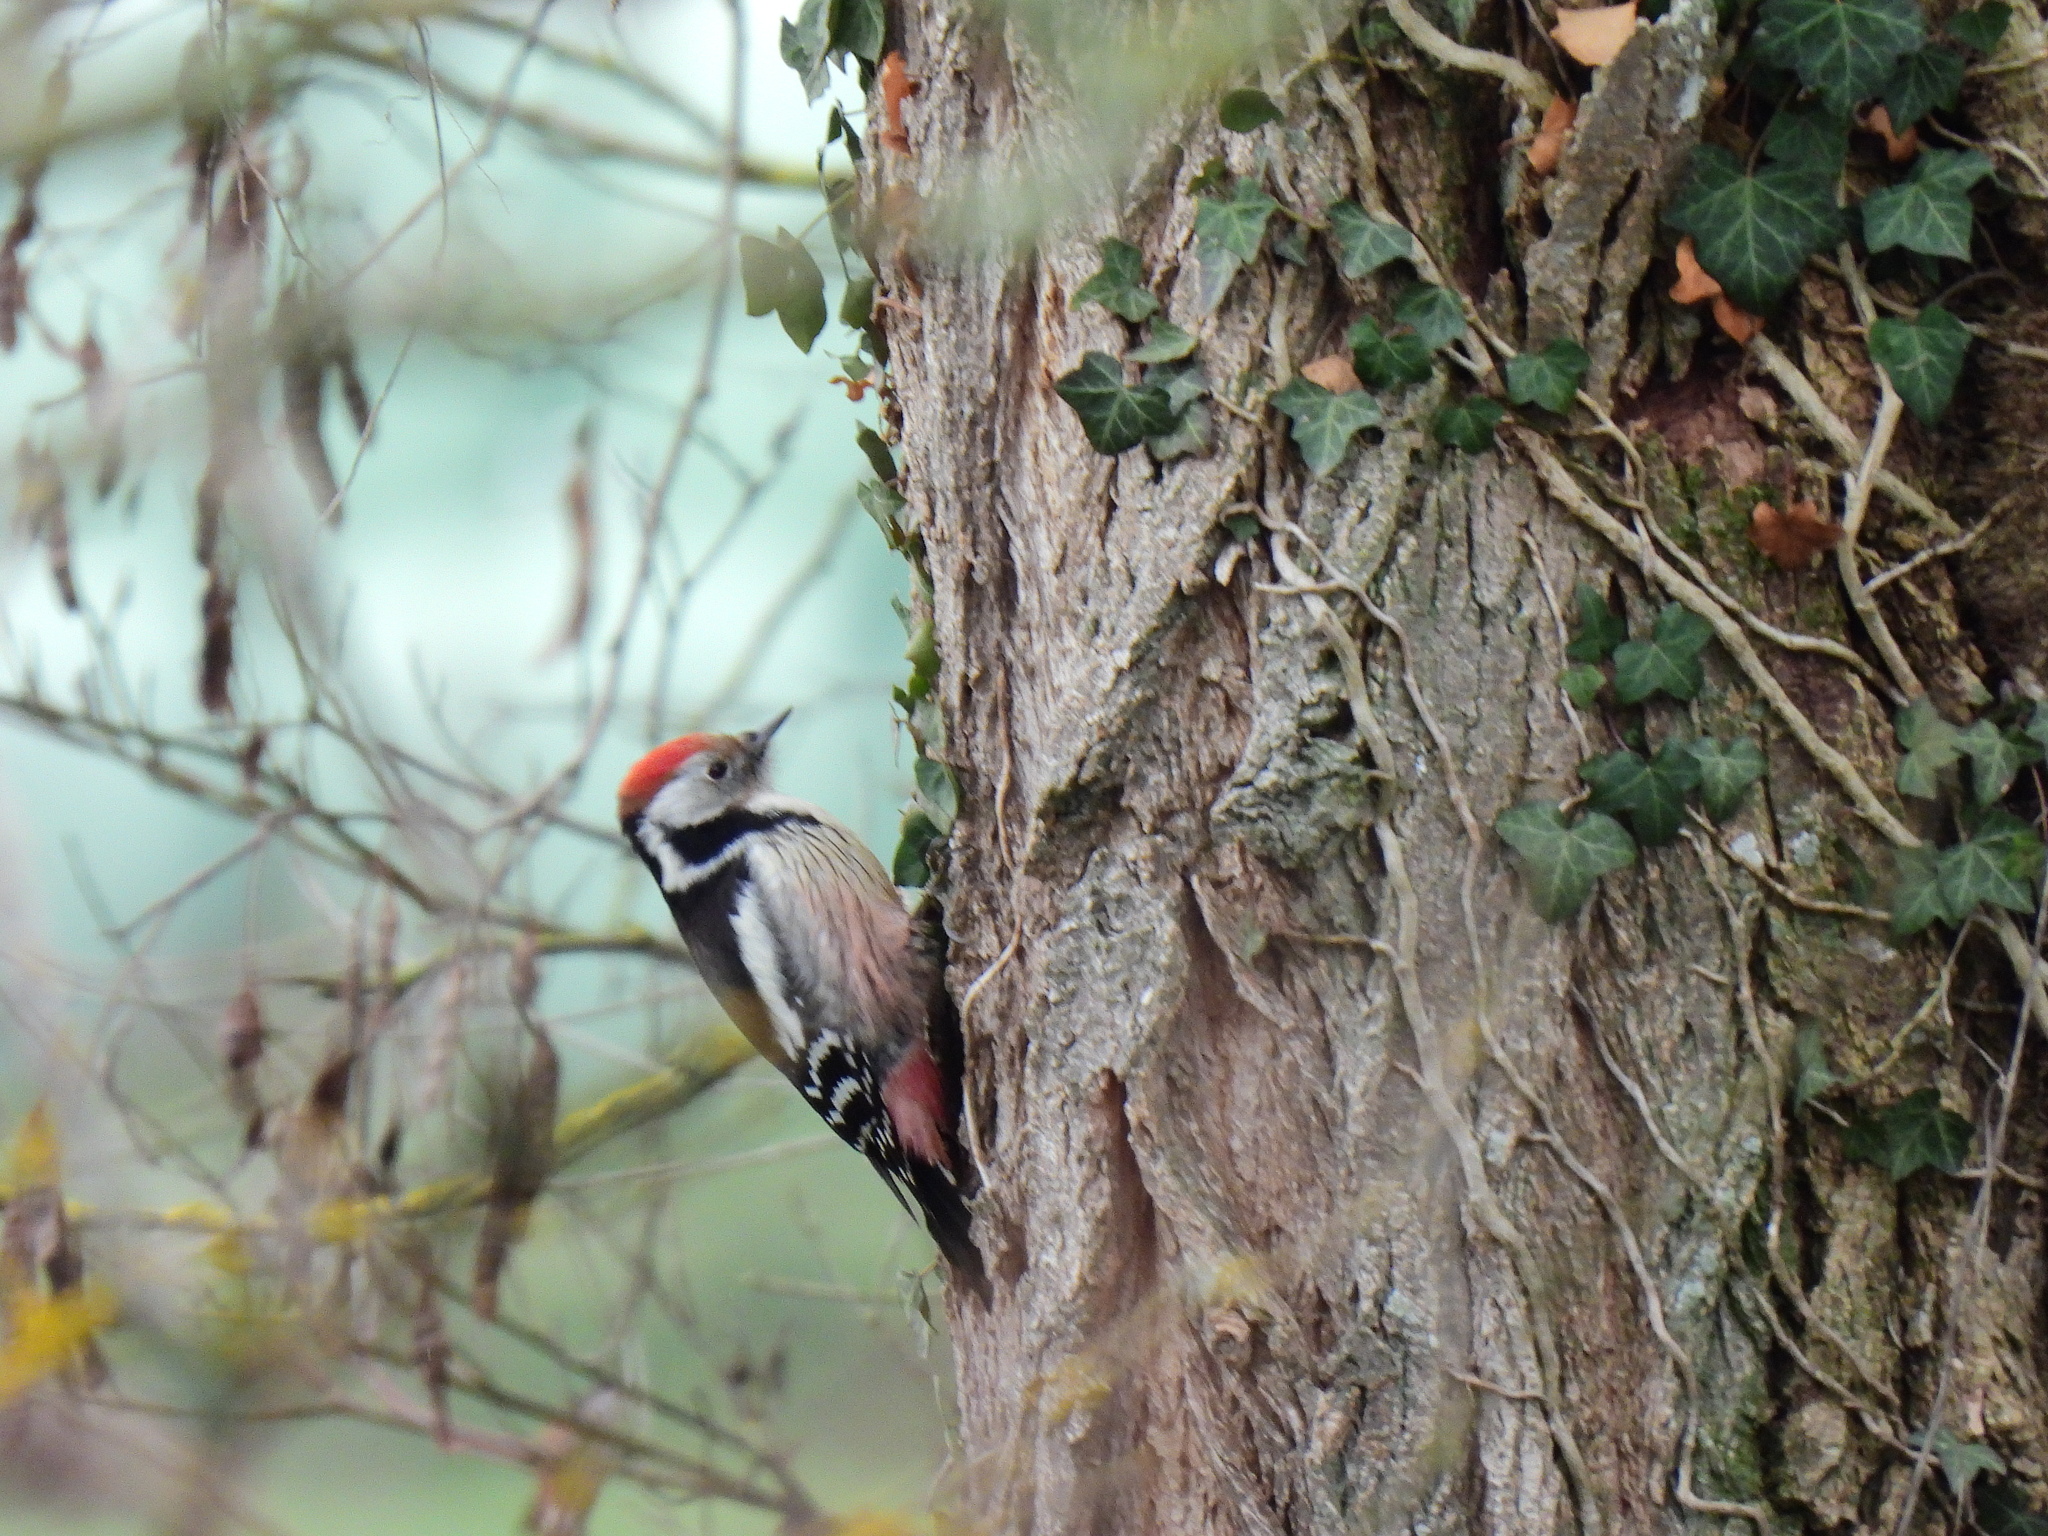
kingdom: Animalia
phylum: Chordata
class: Aves
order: Piciformes
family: Picidae
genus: Dendrocoptes
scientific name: Dendrocoptes medius
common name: Middle spotted woodpecker
